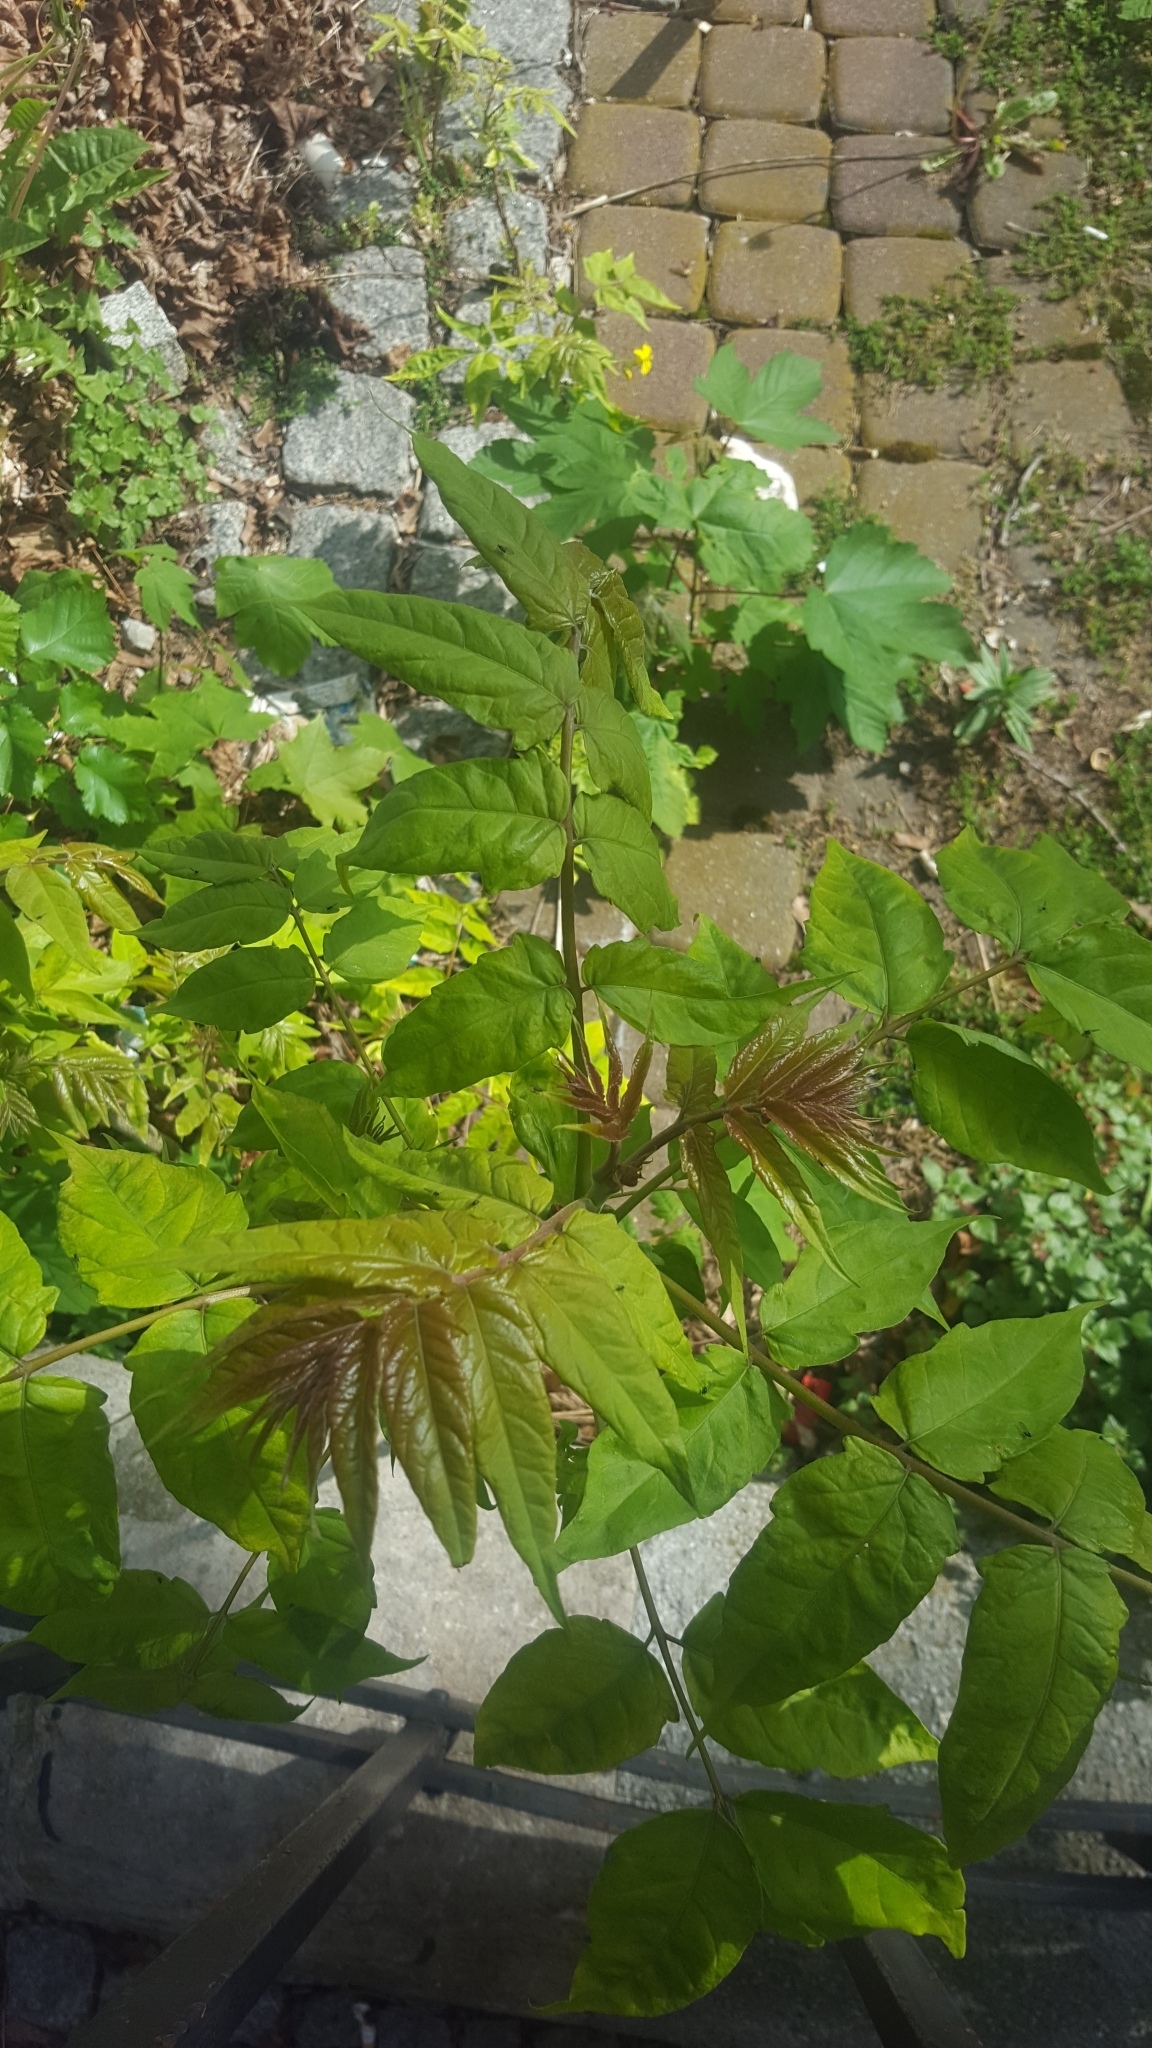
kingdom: Plantae
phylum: Tracheophyta
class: Magnoliopsida
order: Sapindales
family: Simaroubaceae
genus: Ailanthus
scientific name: Ailanthus altissima
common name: Tree-of-heaven
